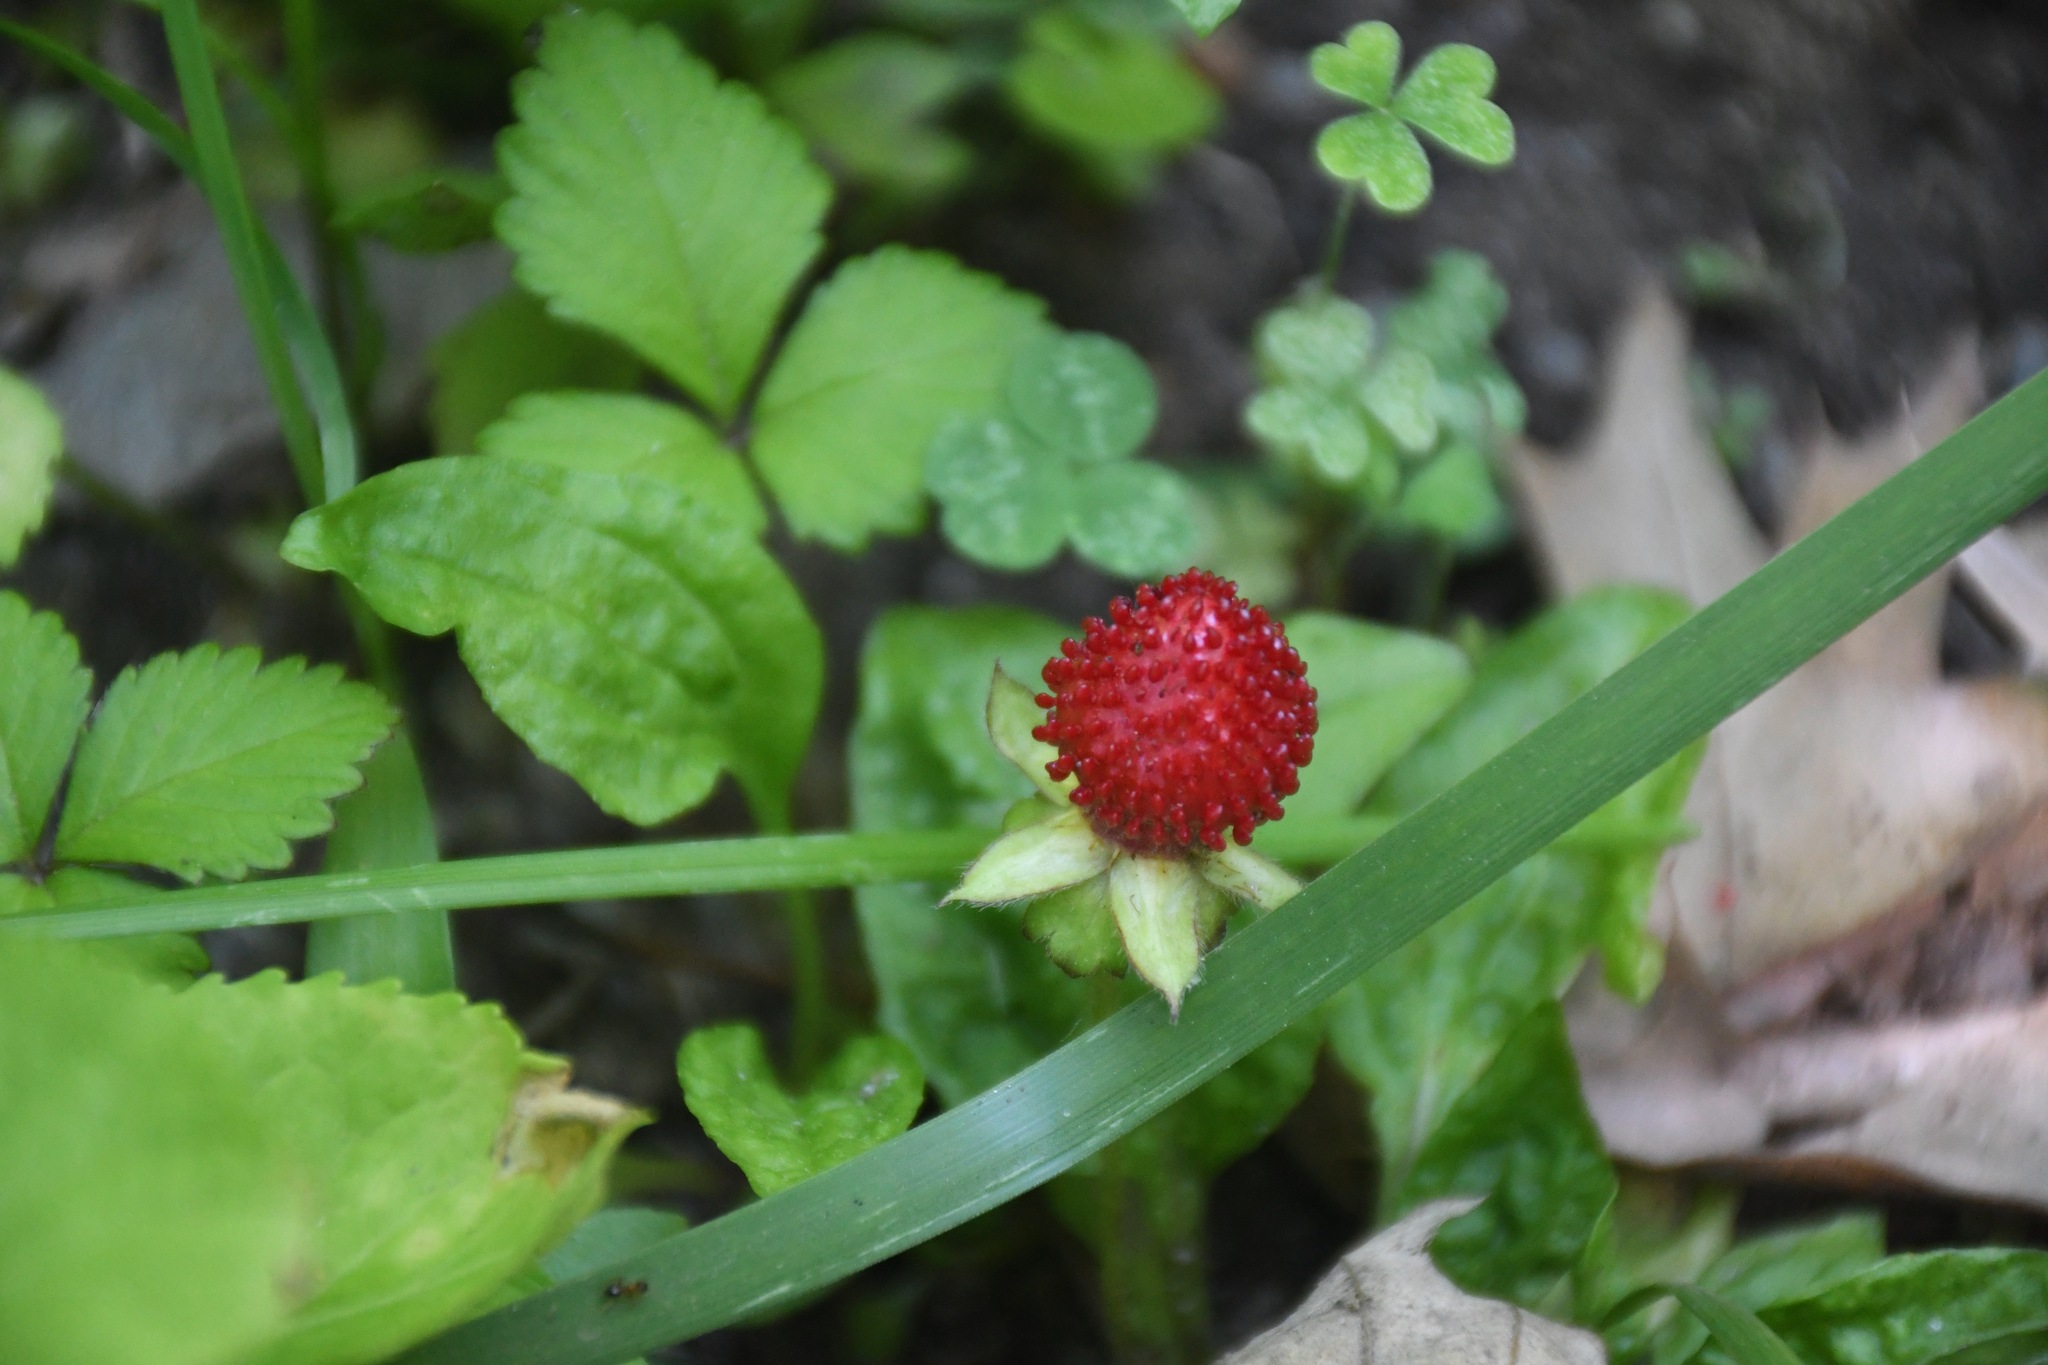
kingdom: Plantae
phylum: Tracheophyta
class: Magnoliopsida
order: Rosales
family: Rosaceae
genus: Potentilla
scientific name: Potentilla indica
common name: Yellow-flowered strawberry
